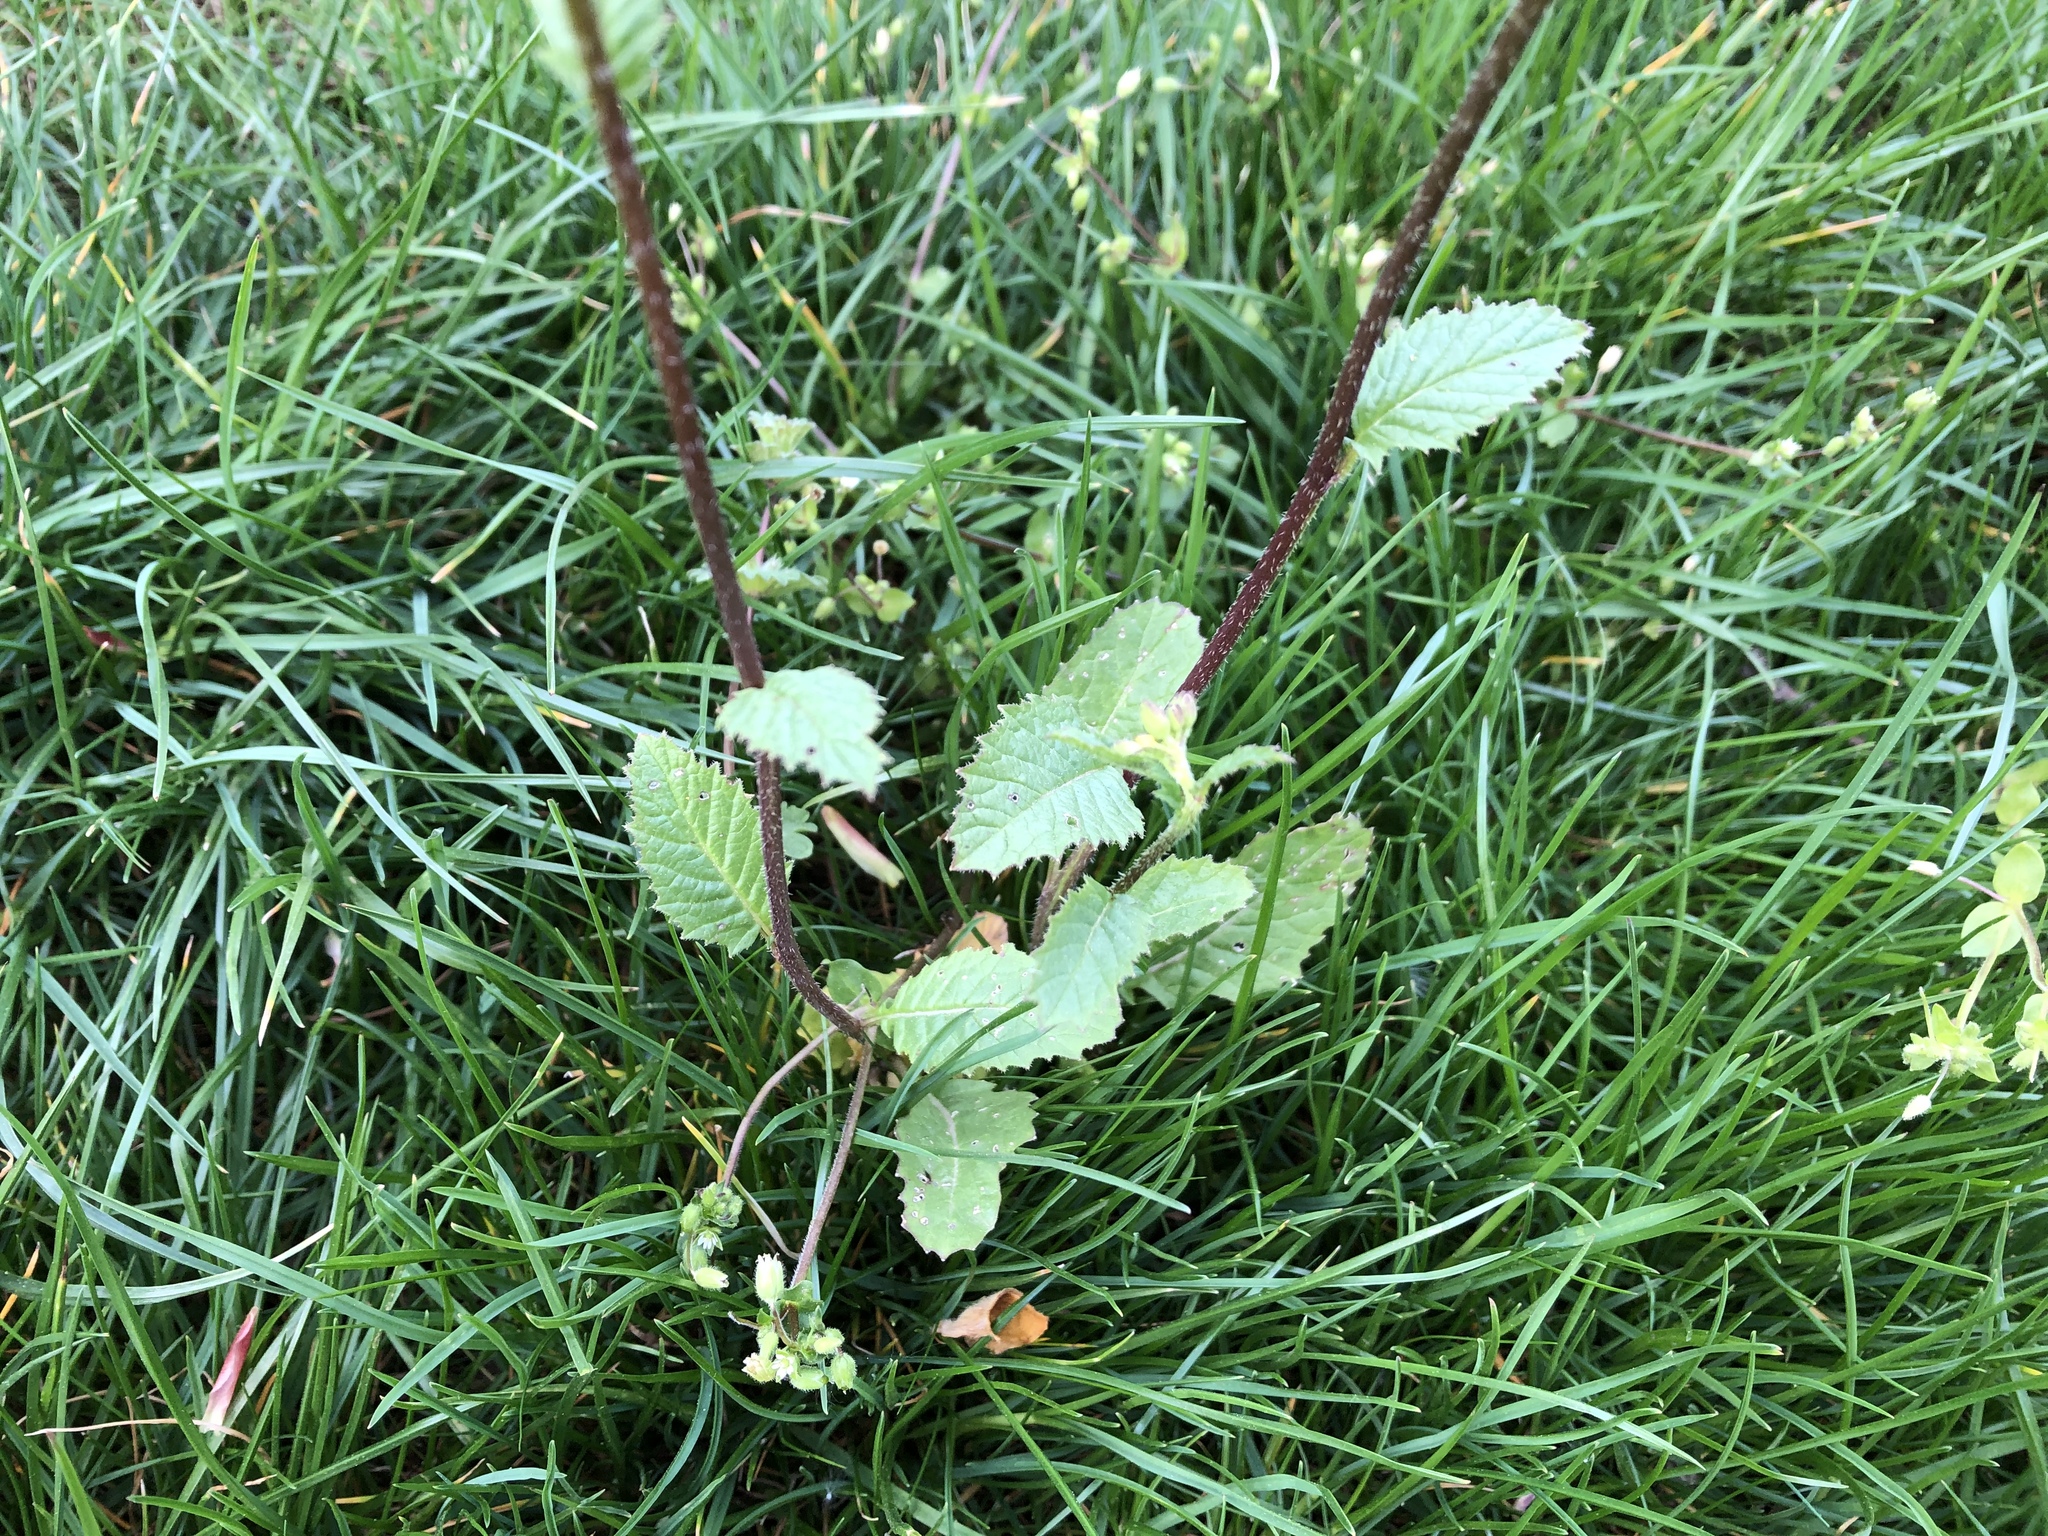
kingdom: Plantae
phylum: Tracheophyta
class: Magnoliopsida
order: Brassicales
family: Brassicaceae
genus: Sinapis
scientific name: Sinapis arvensis
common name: Charlock
